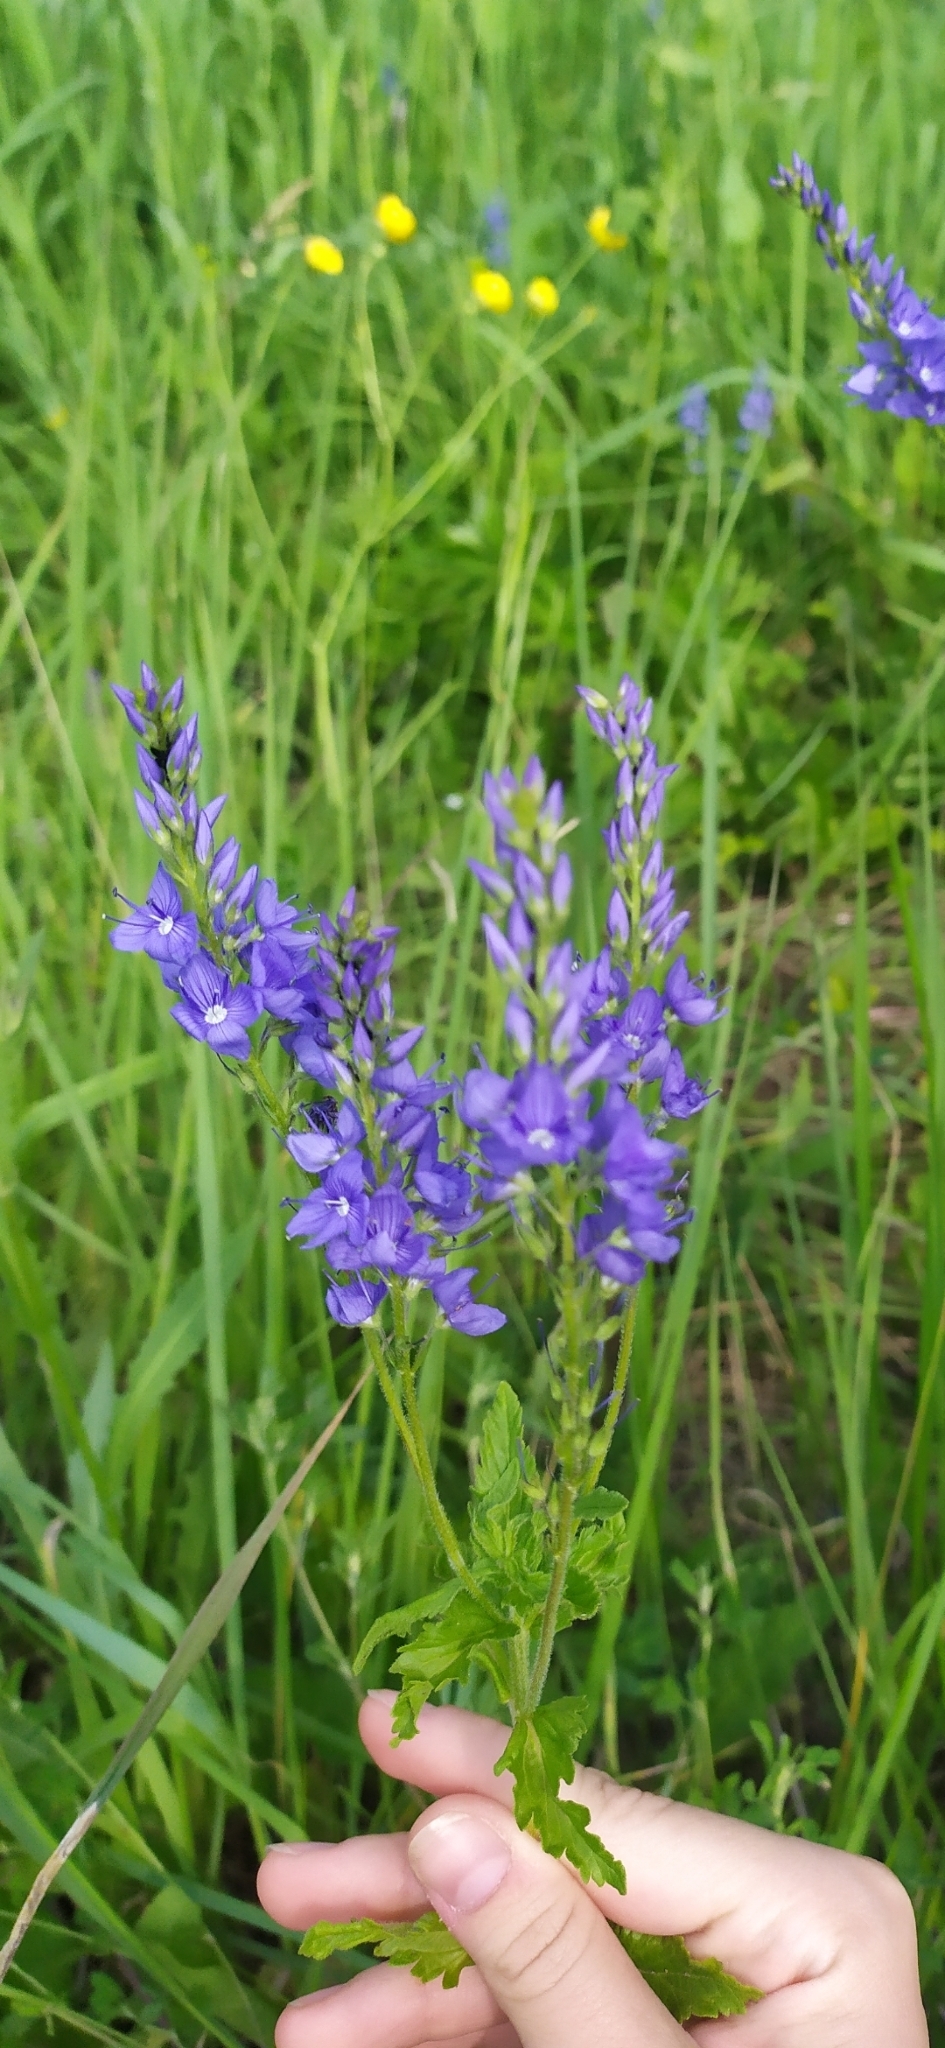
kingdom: Plantae
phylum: Tracheophyta
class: Magnoliopsida
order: Lamiales
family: Plantaginaceae
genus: Veronica
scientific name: Veronica teucrium
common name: Large speedwell
